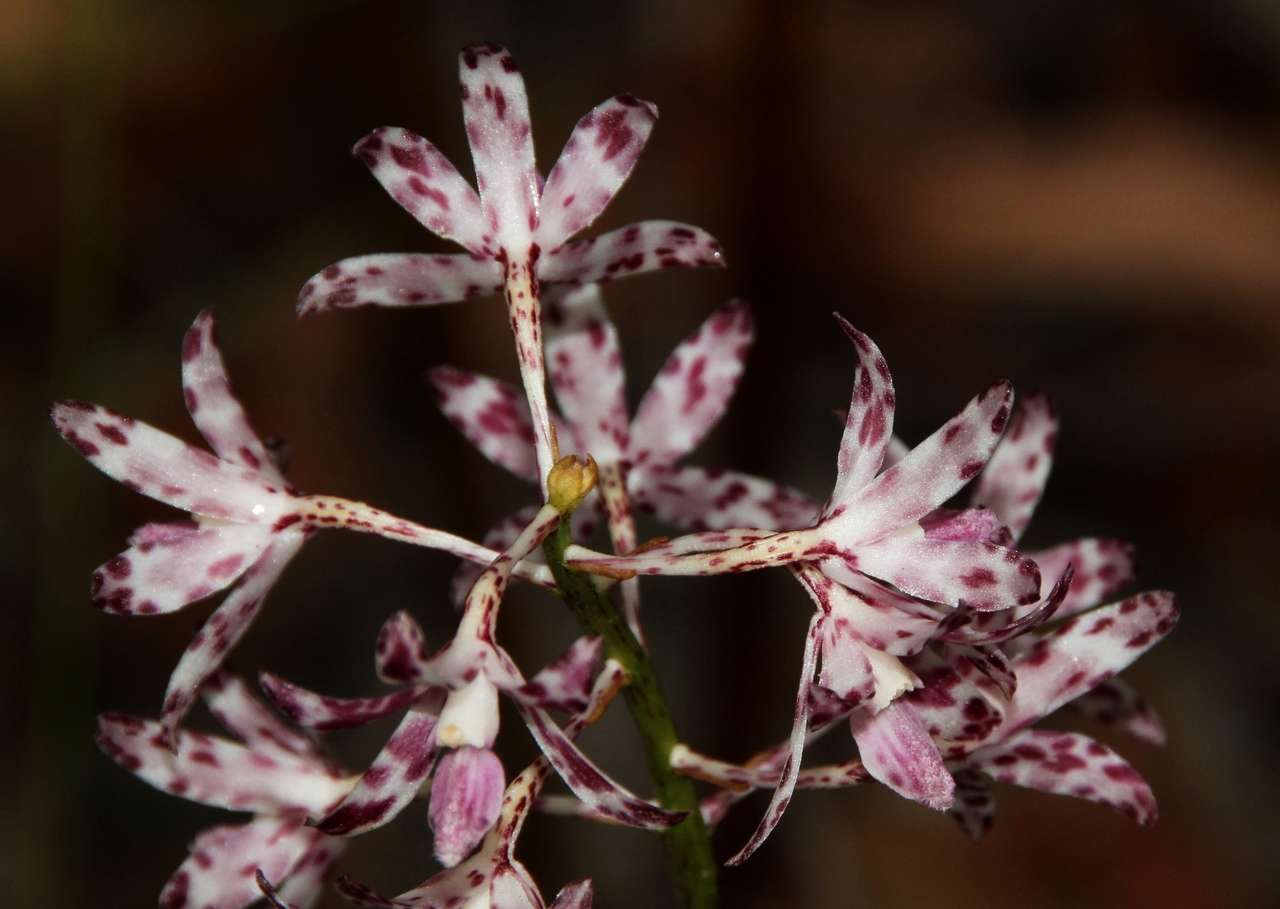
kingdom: Plantae
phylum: Tracheophyta
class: Liliopsida
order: Asparagales
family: Orchidaceae
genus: Dipodium
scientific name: Dipodium variegatum
